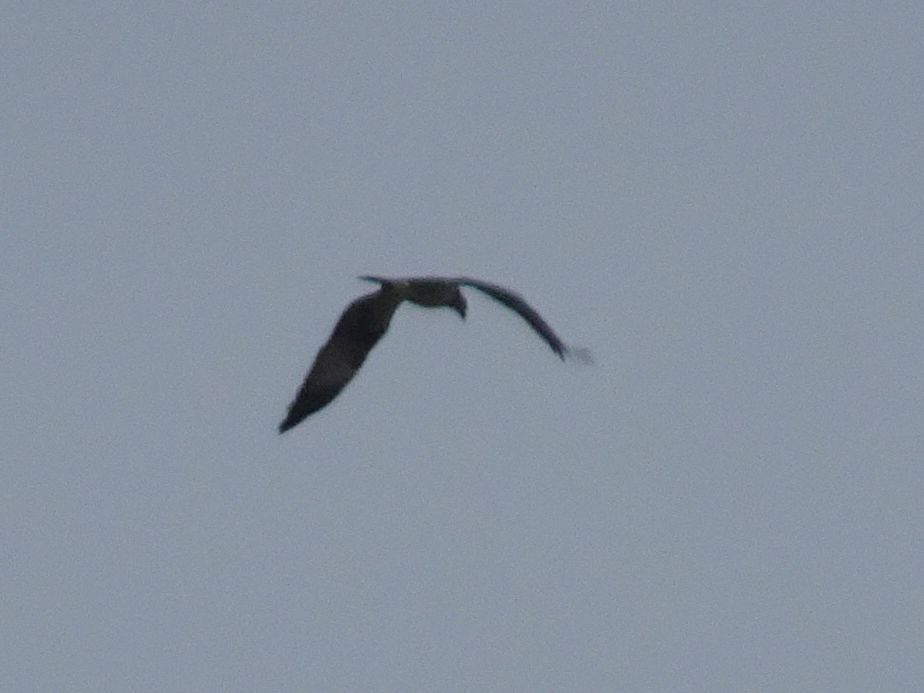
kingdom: Animalia
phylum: Chordata
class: Aves
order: Accipitriformes
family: Pandionidae
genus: Pandion
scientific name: Pandion haliaetus
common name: Osprey
